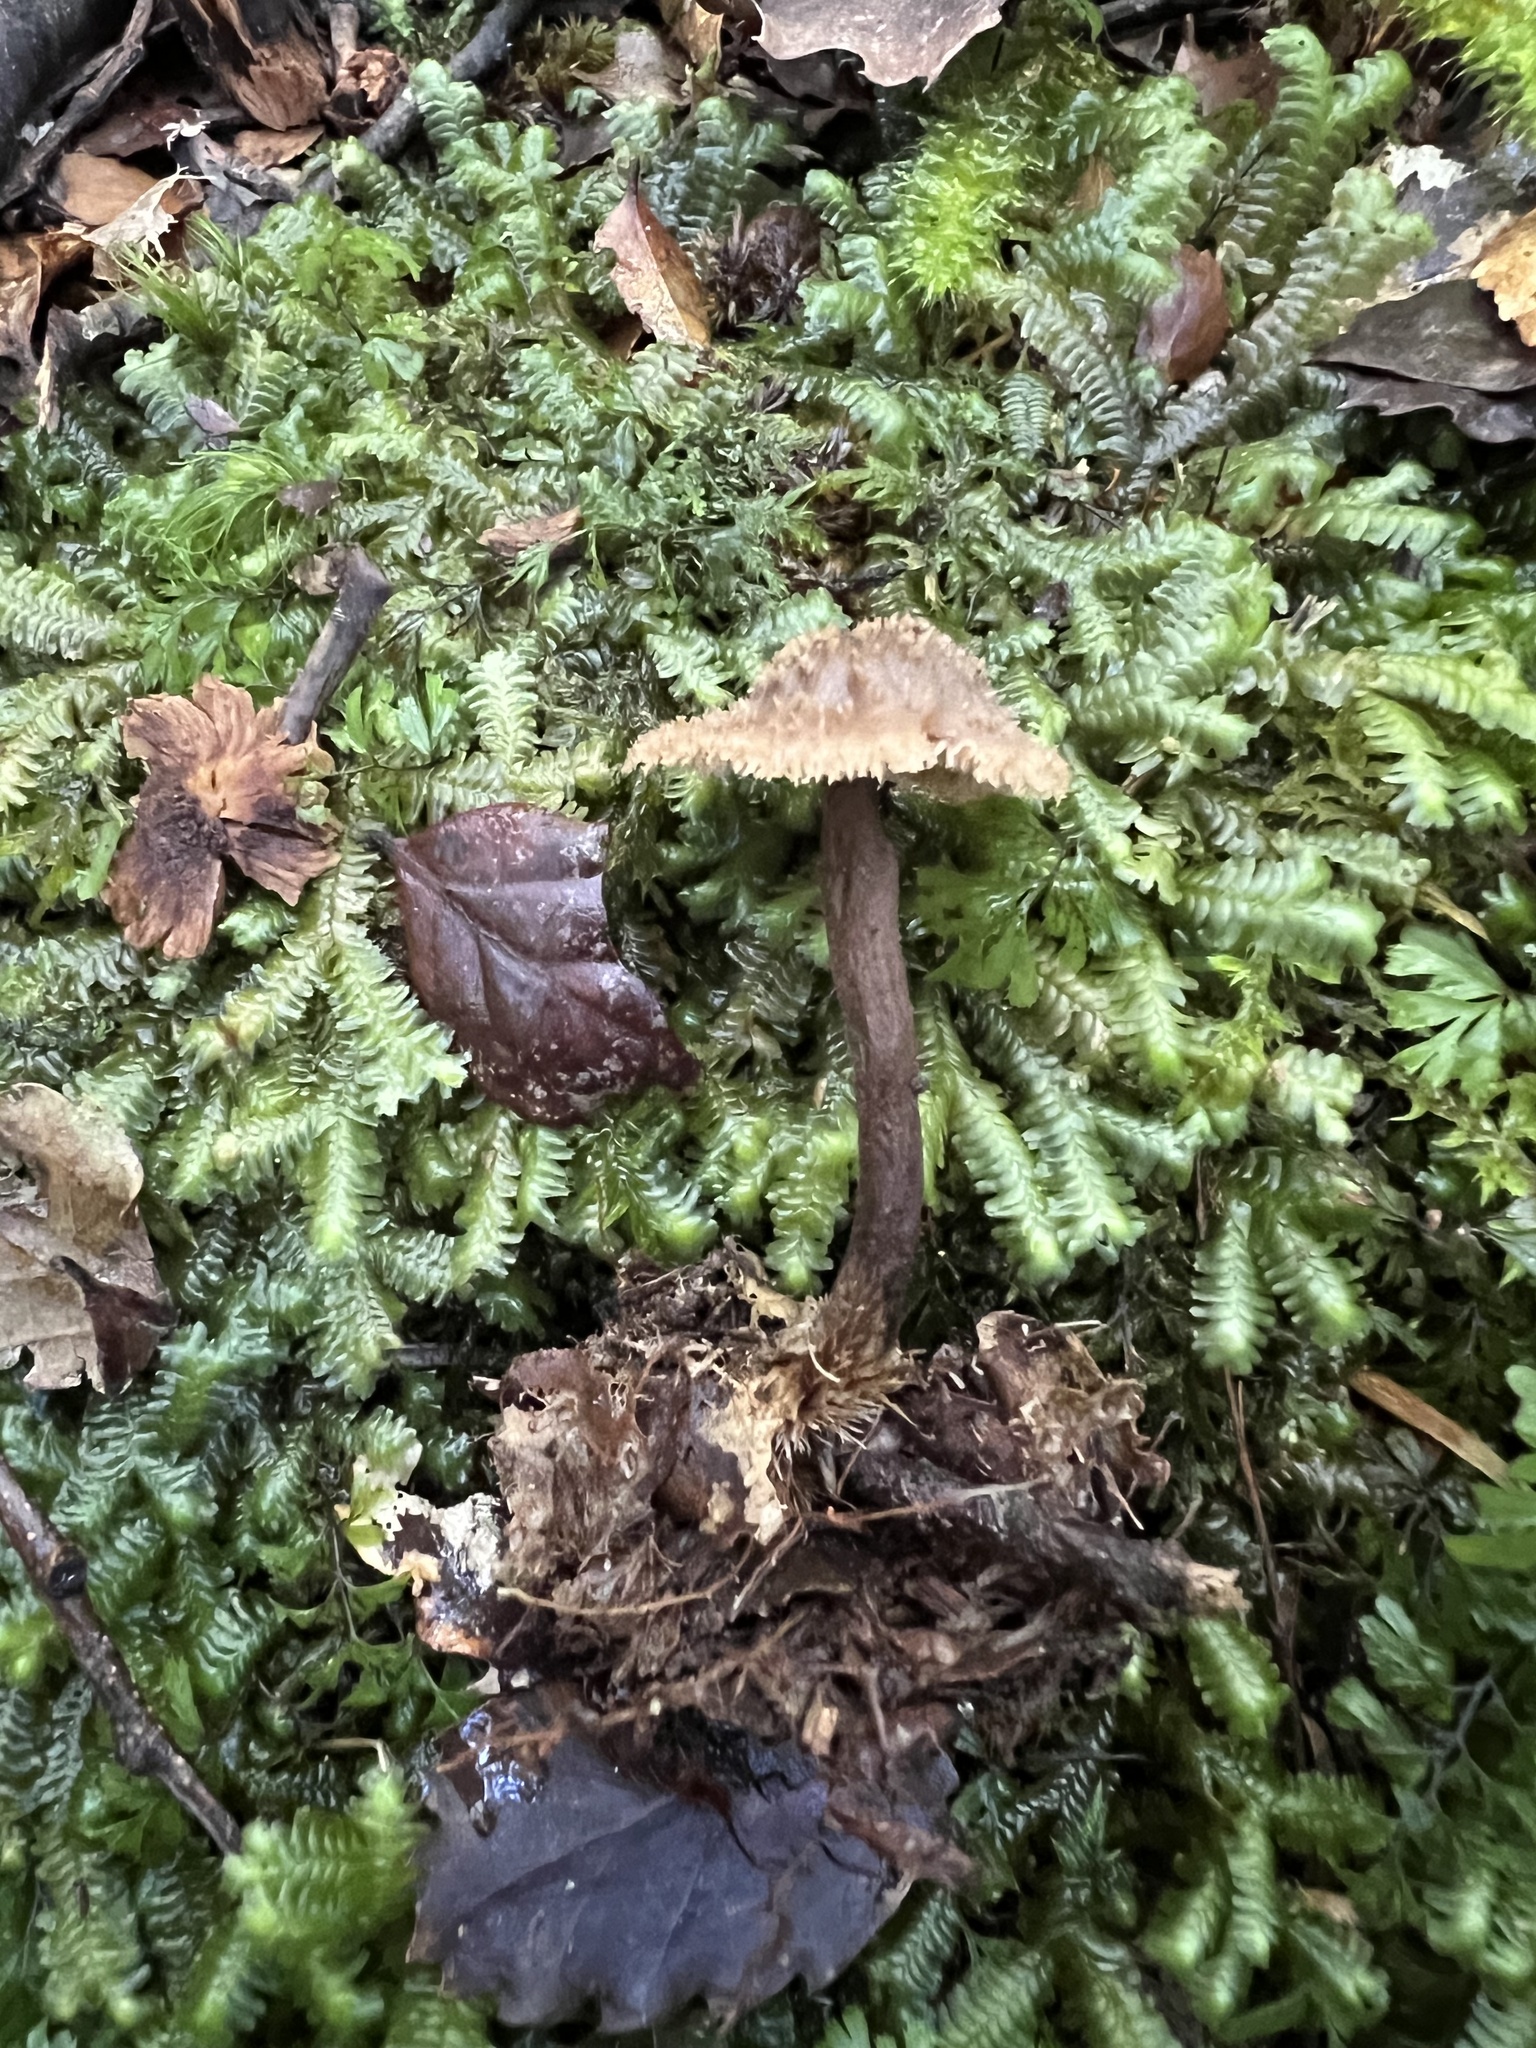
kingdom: Fungi
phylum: Basidiomycota
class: Agaricomycetes
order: Russulales
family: Auriscalpiaceae
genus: Auriscalpium
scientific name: Auriscalpium umbella
